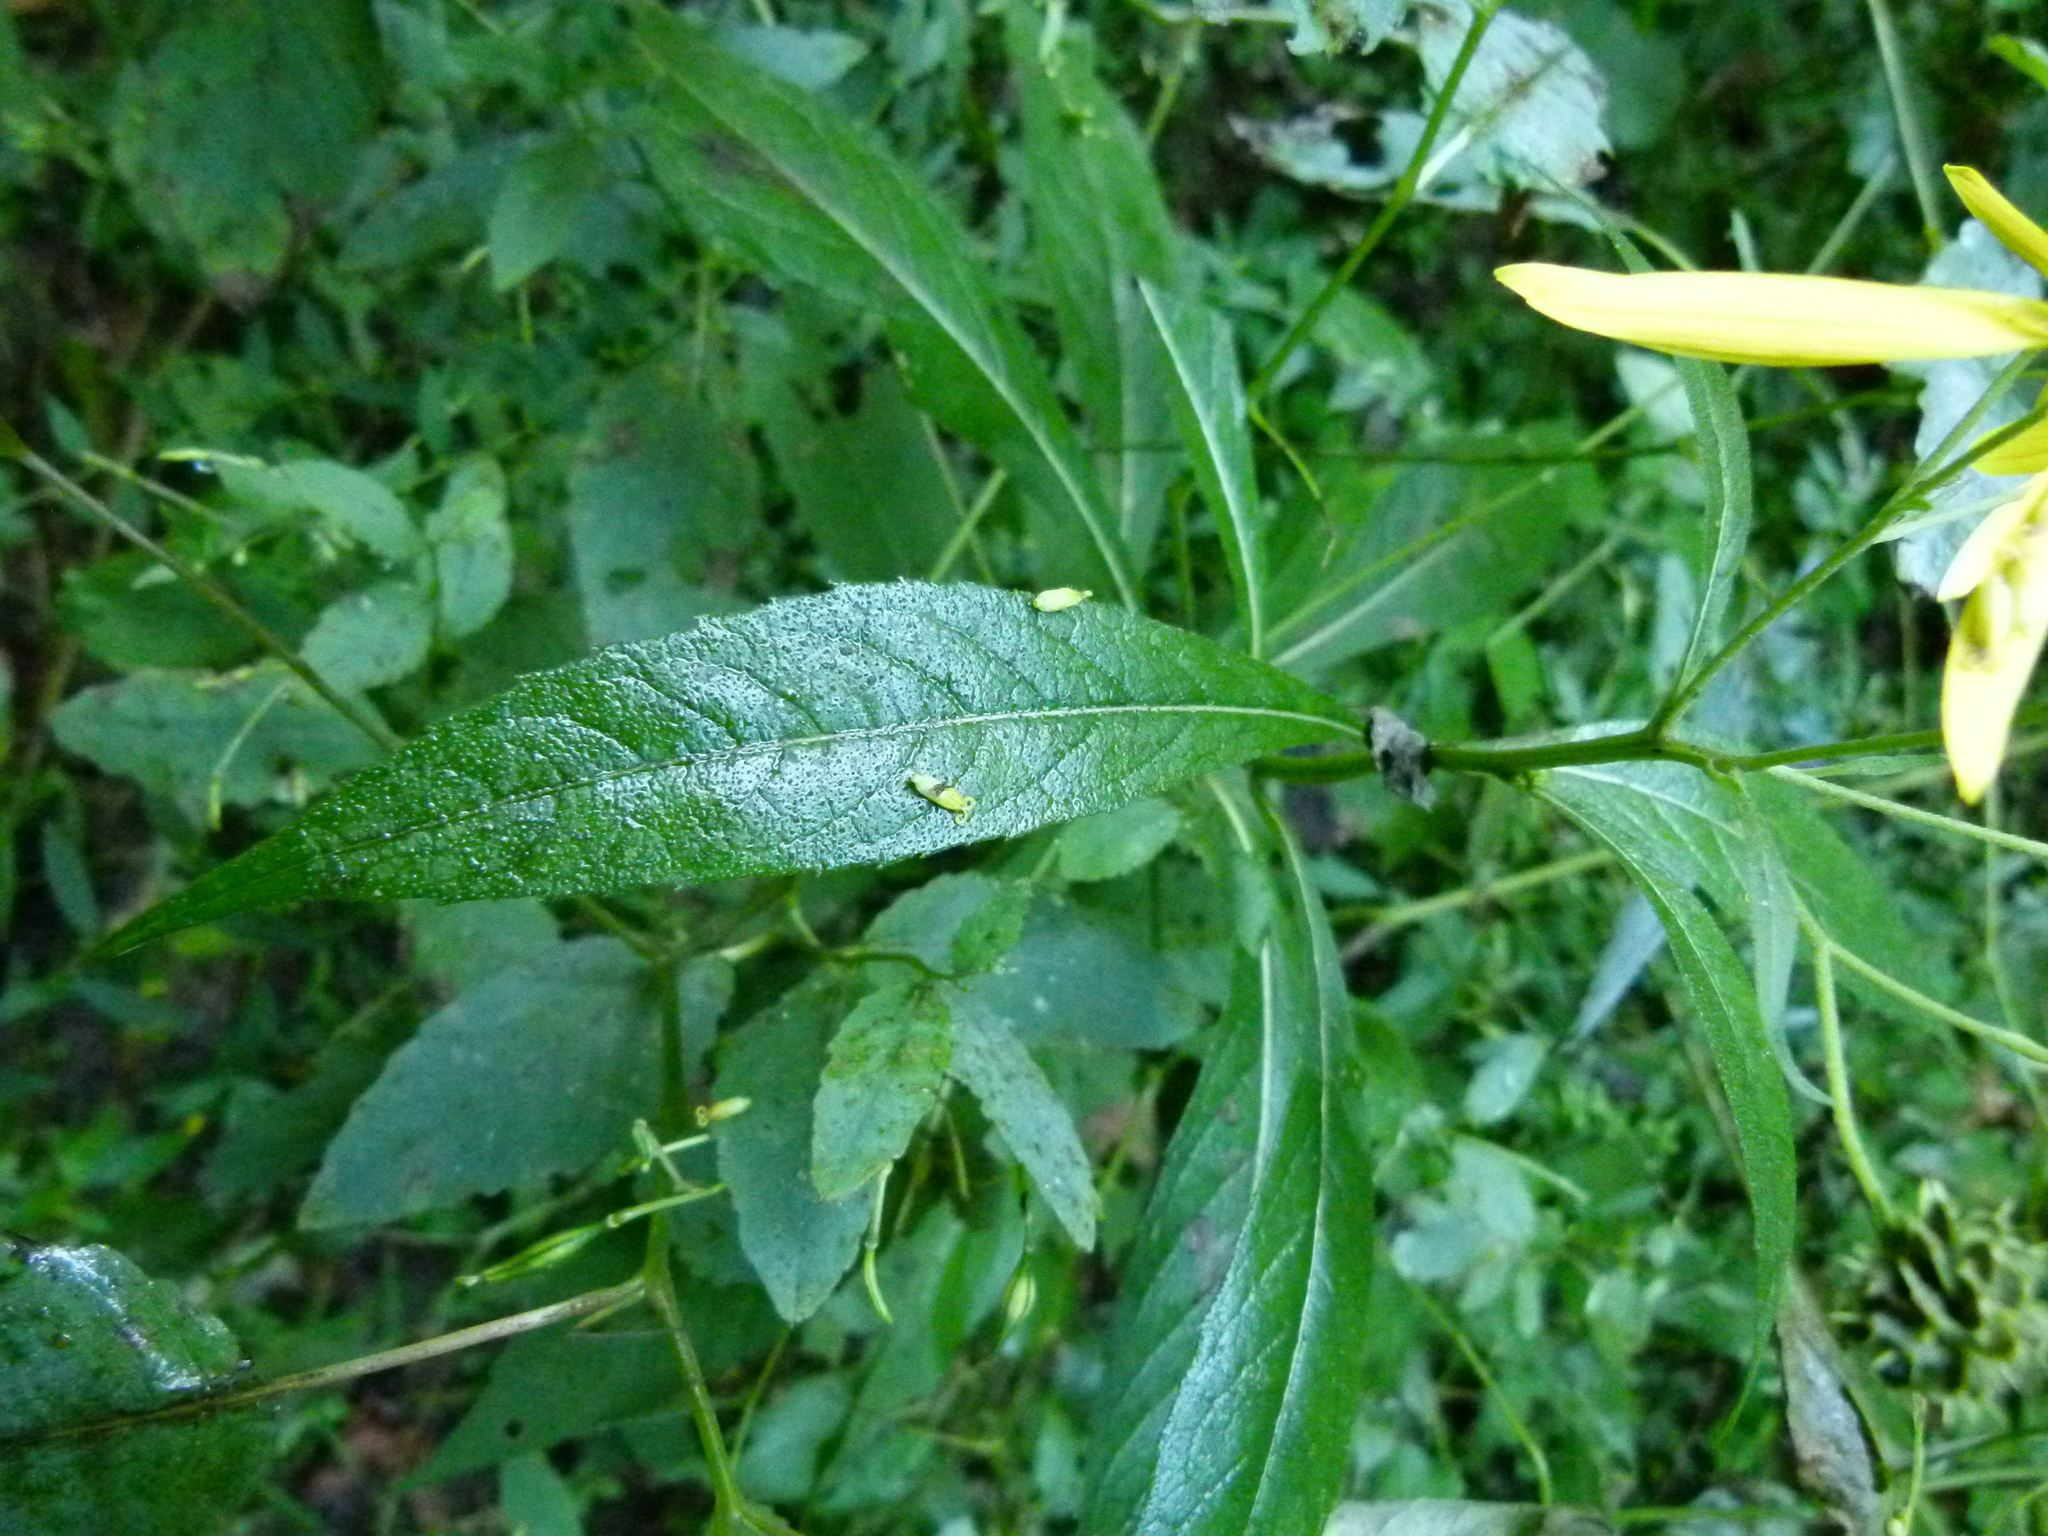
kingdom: Plantae
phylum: Tracheophyta
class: Magnoliopsida
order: Asterales
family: Asteraceae
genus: Verbesina
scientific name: Verbesina alternifolia
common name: Wingstem
